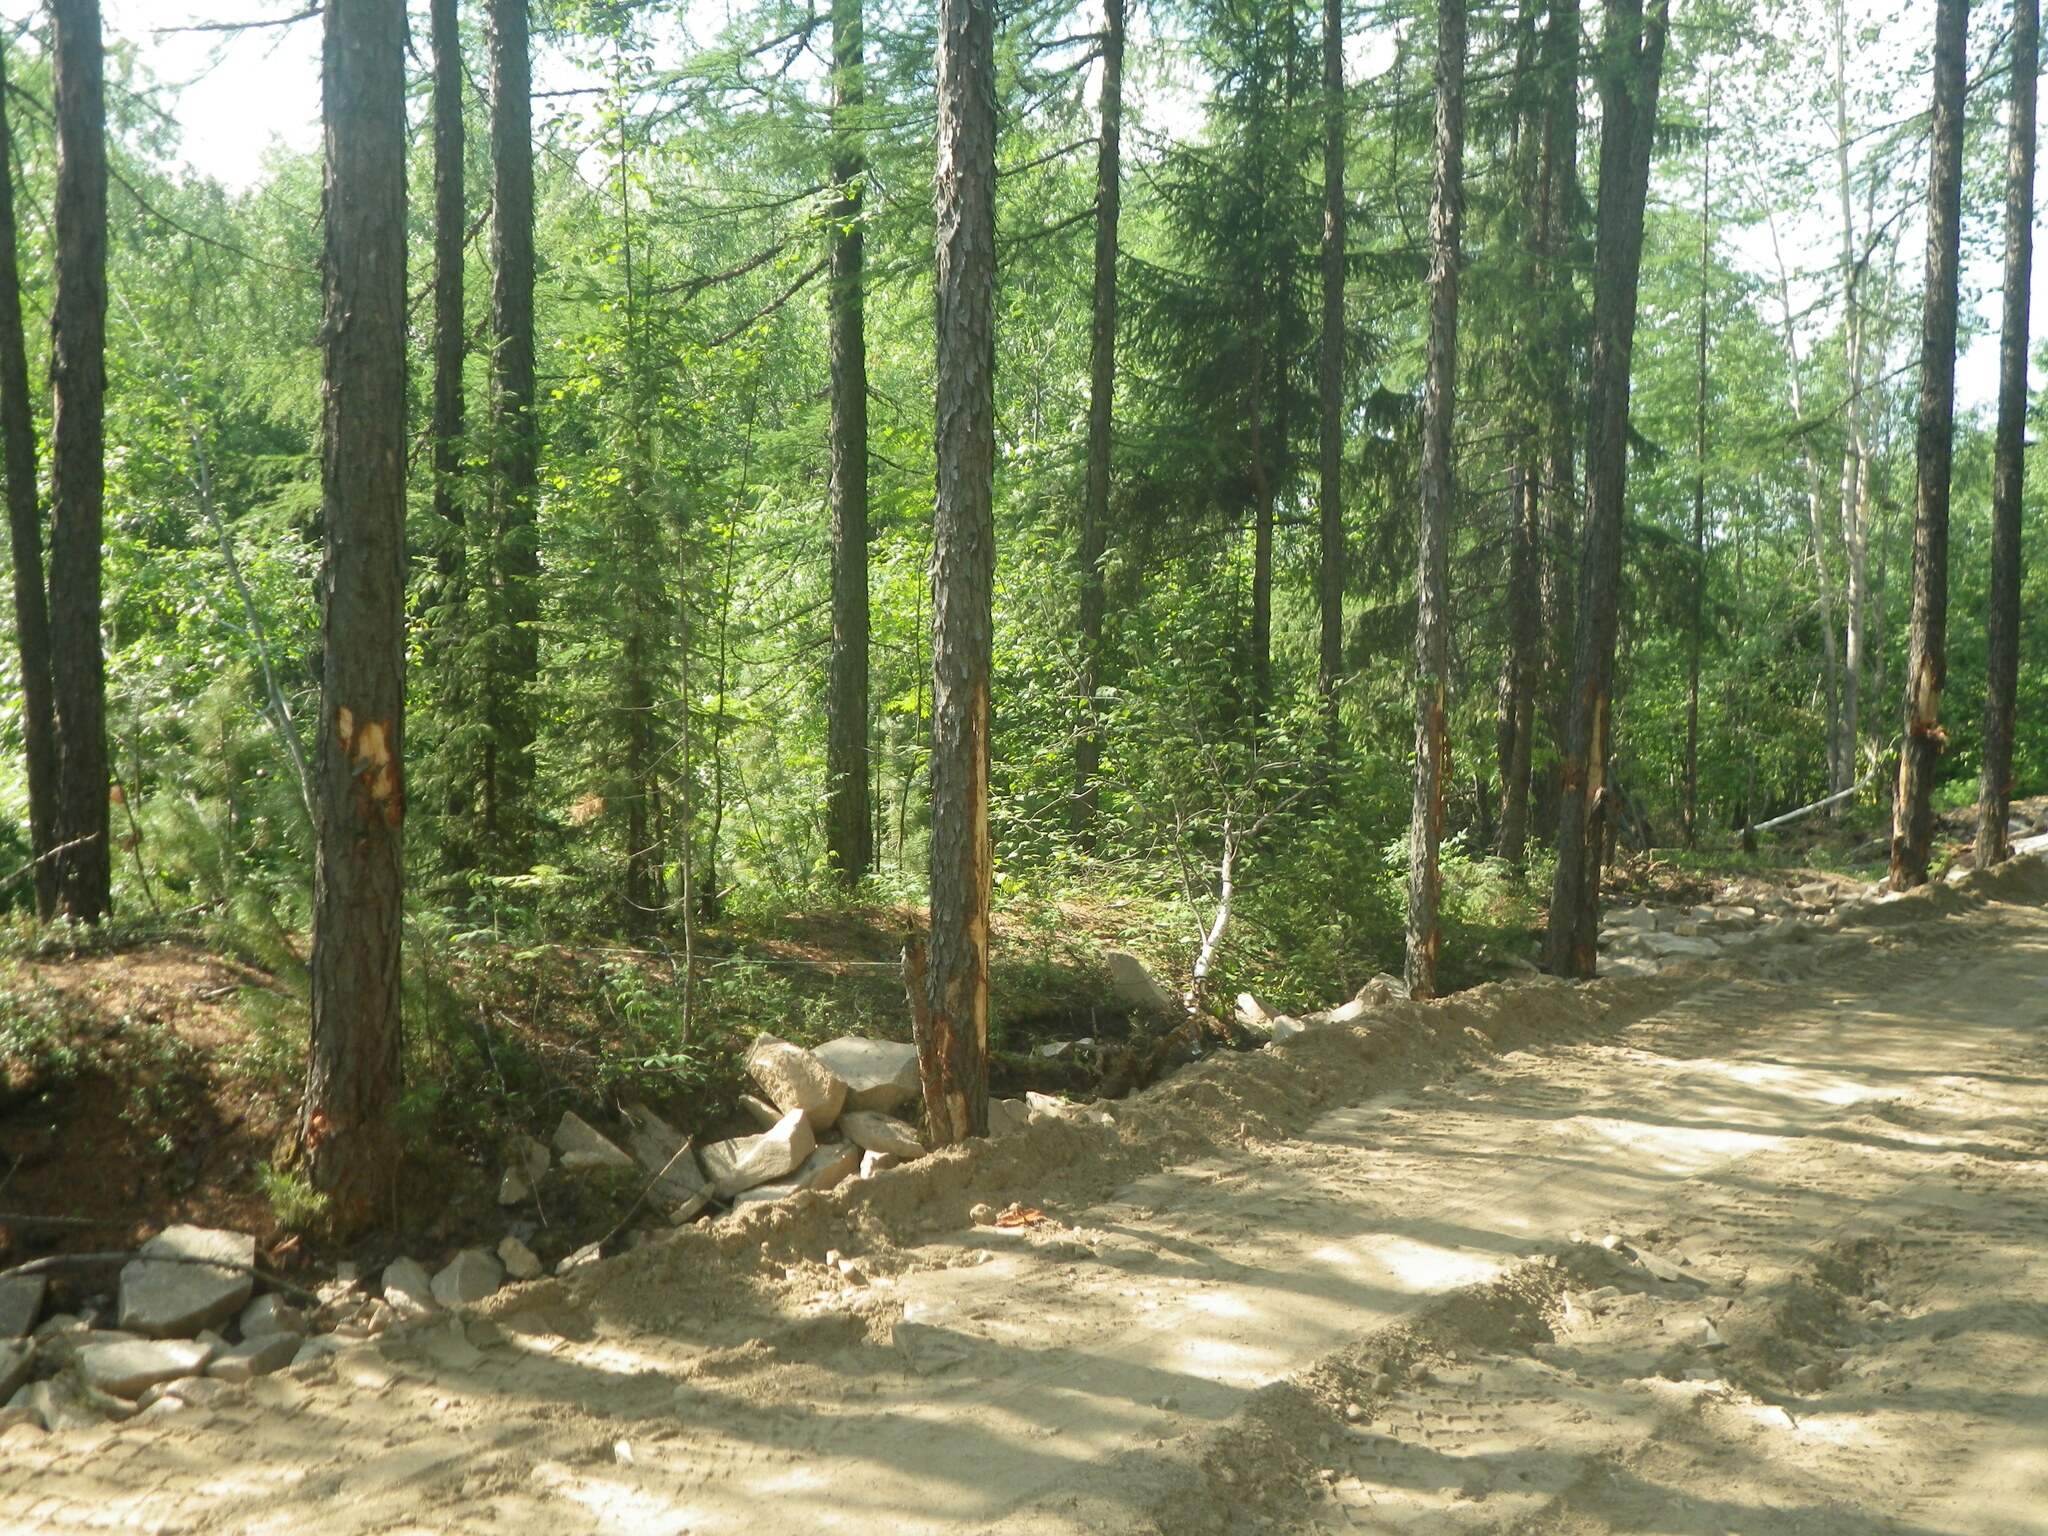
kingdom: Plantae
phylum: Tracheophyta
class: Pinopsida
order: Pinales
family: Pinaceae
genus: Larix
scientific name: Larix gmelinii
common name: Dahurian larch
